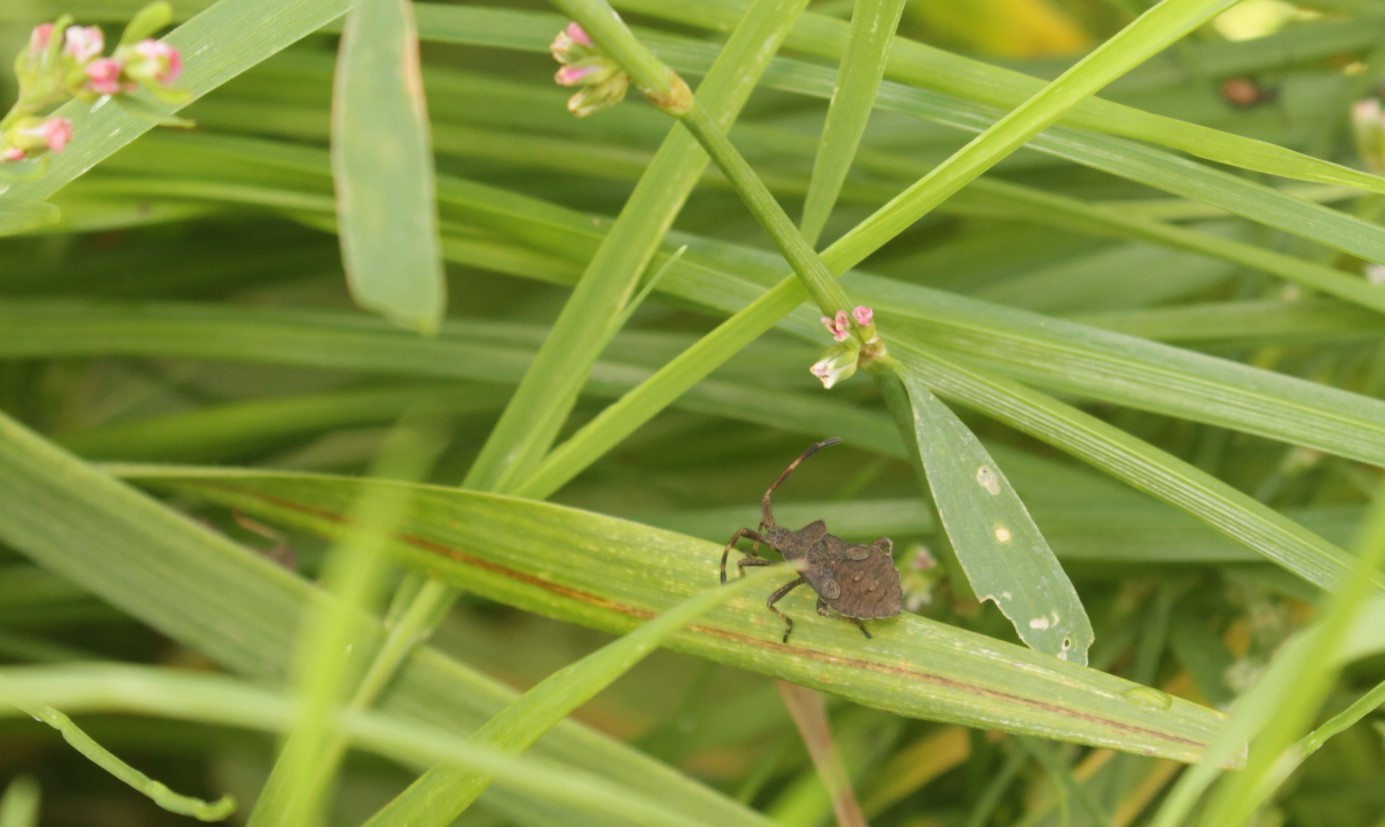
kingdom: Animalia
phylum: Arthropoda
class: Insecta
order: Hemiptera
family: Coreidae
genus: Coreus
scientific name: Coreus marginatus
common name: Dock bug
